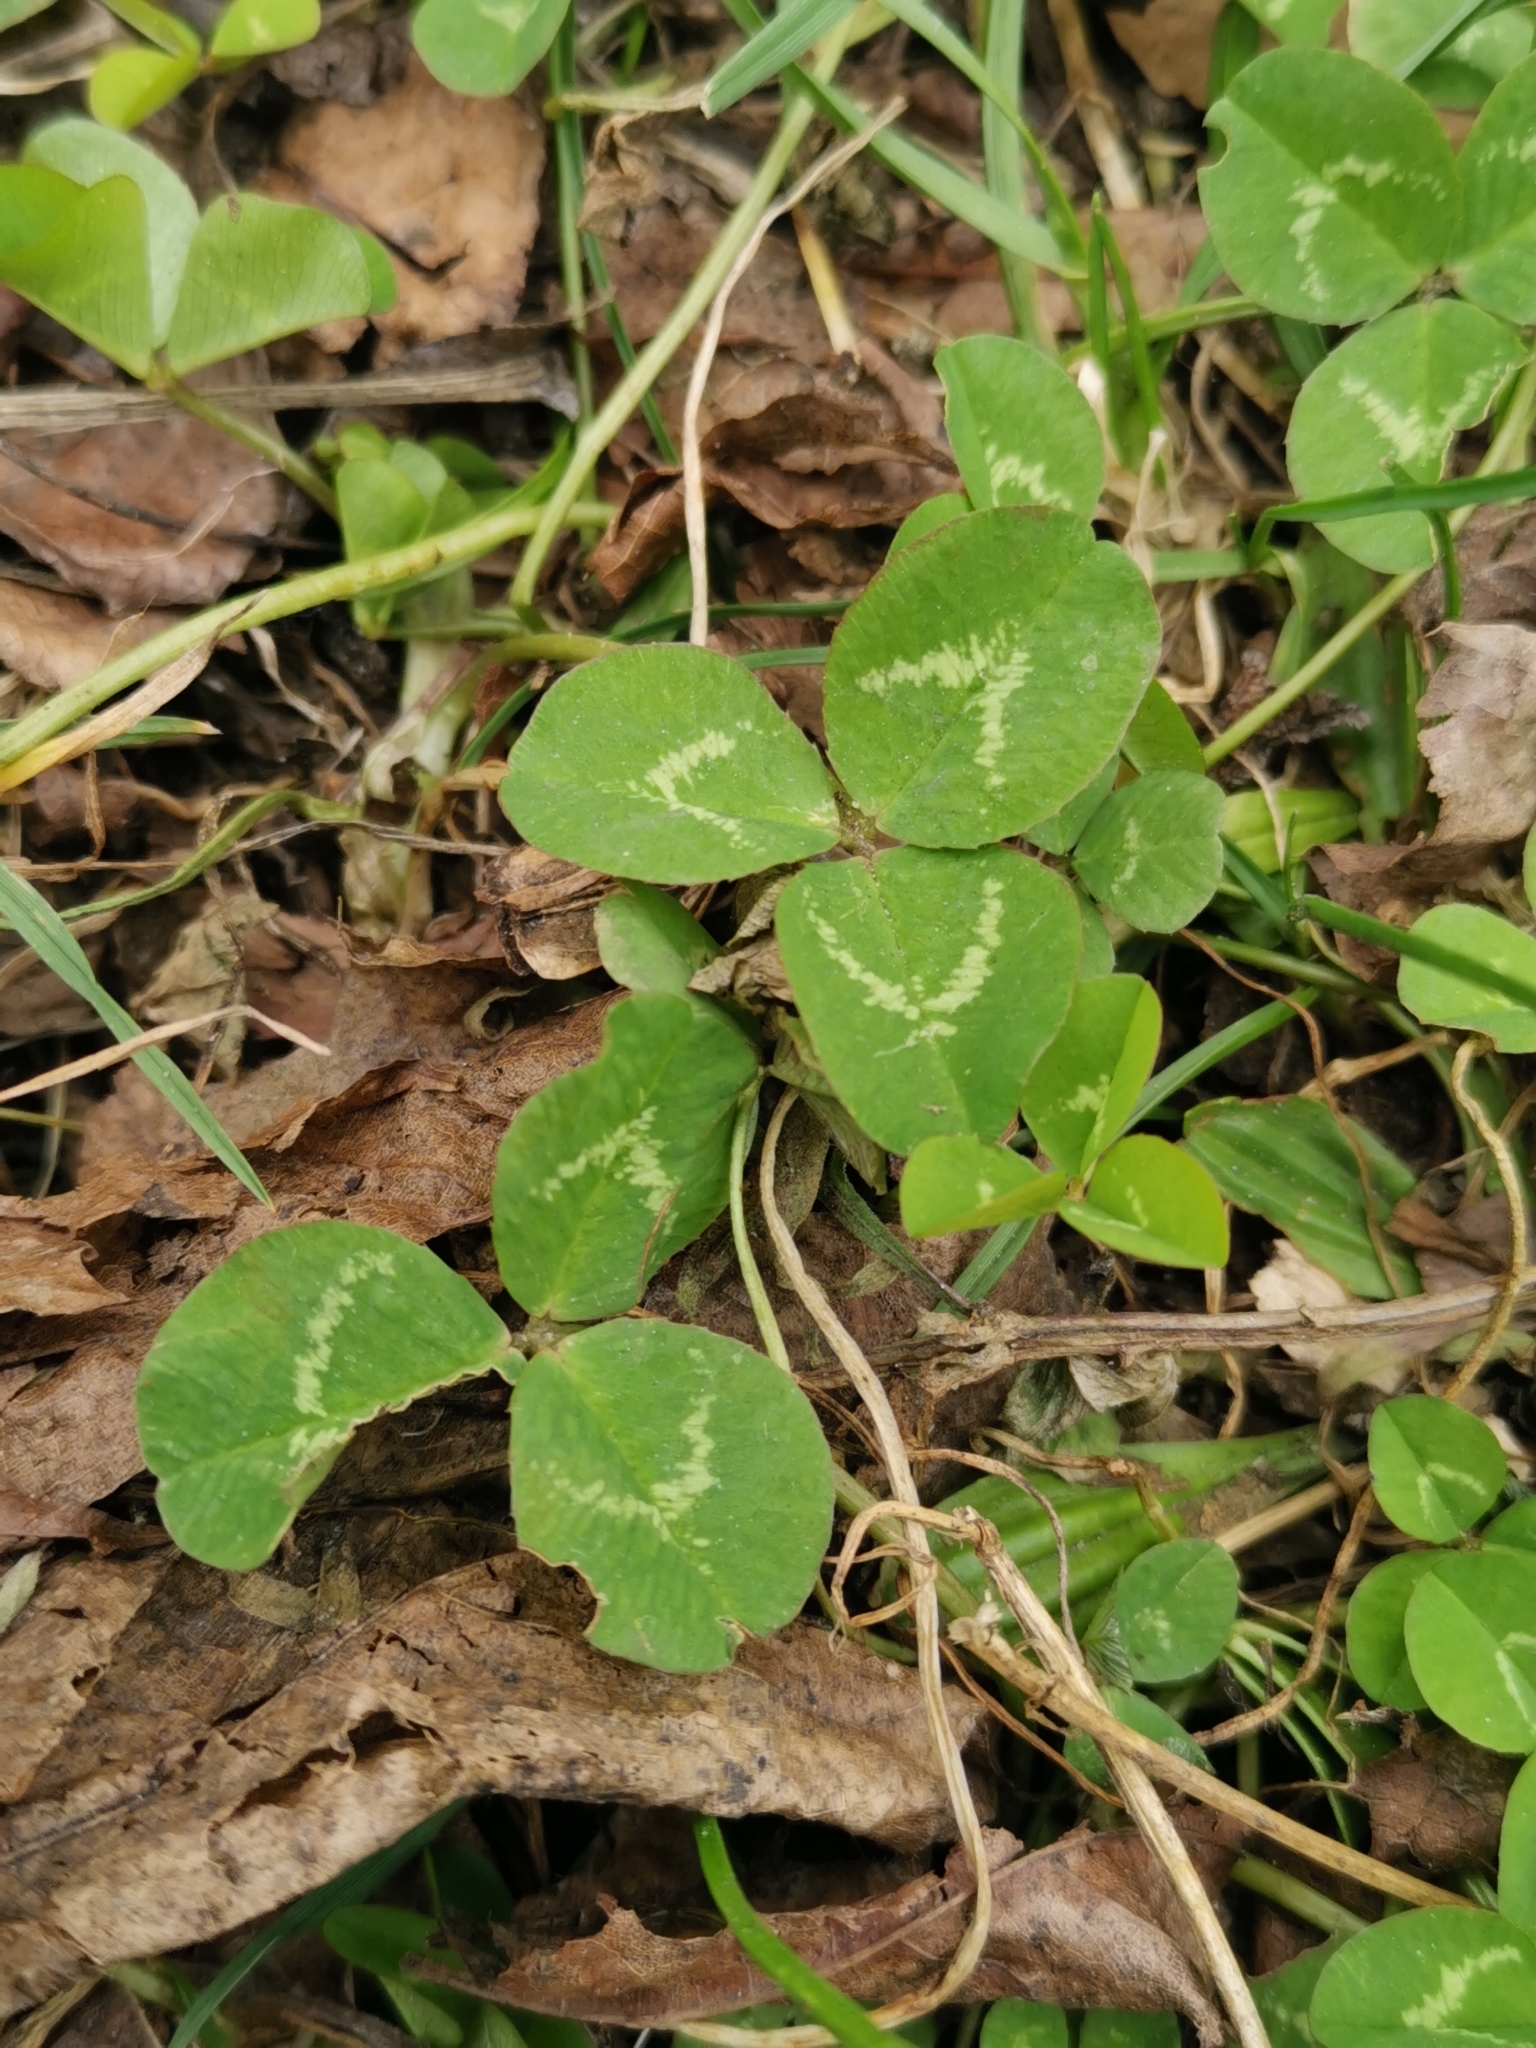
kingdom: Plantae
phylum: Tracheophyta
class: Magnoliopsida
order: Fabales
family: Fabaceae
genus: Trifolium
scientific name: Trifolium repens
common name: White clover
